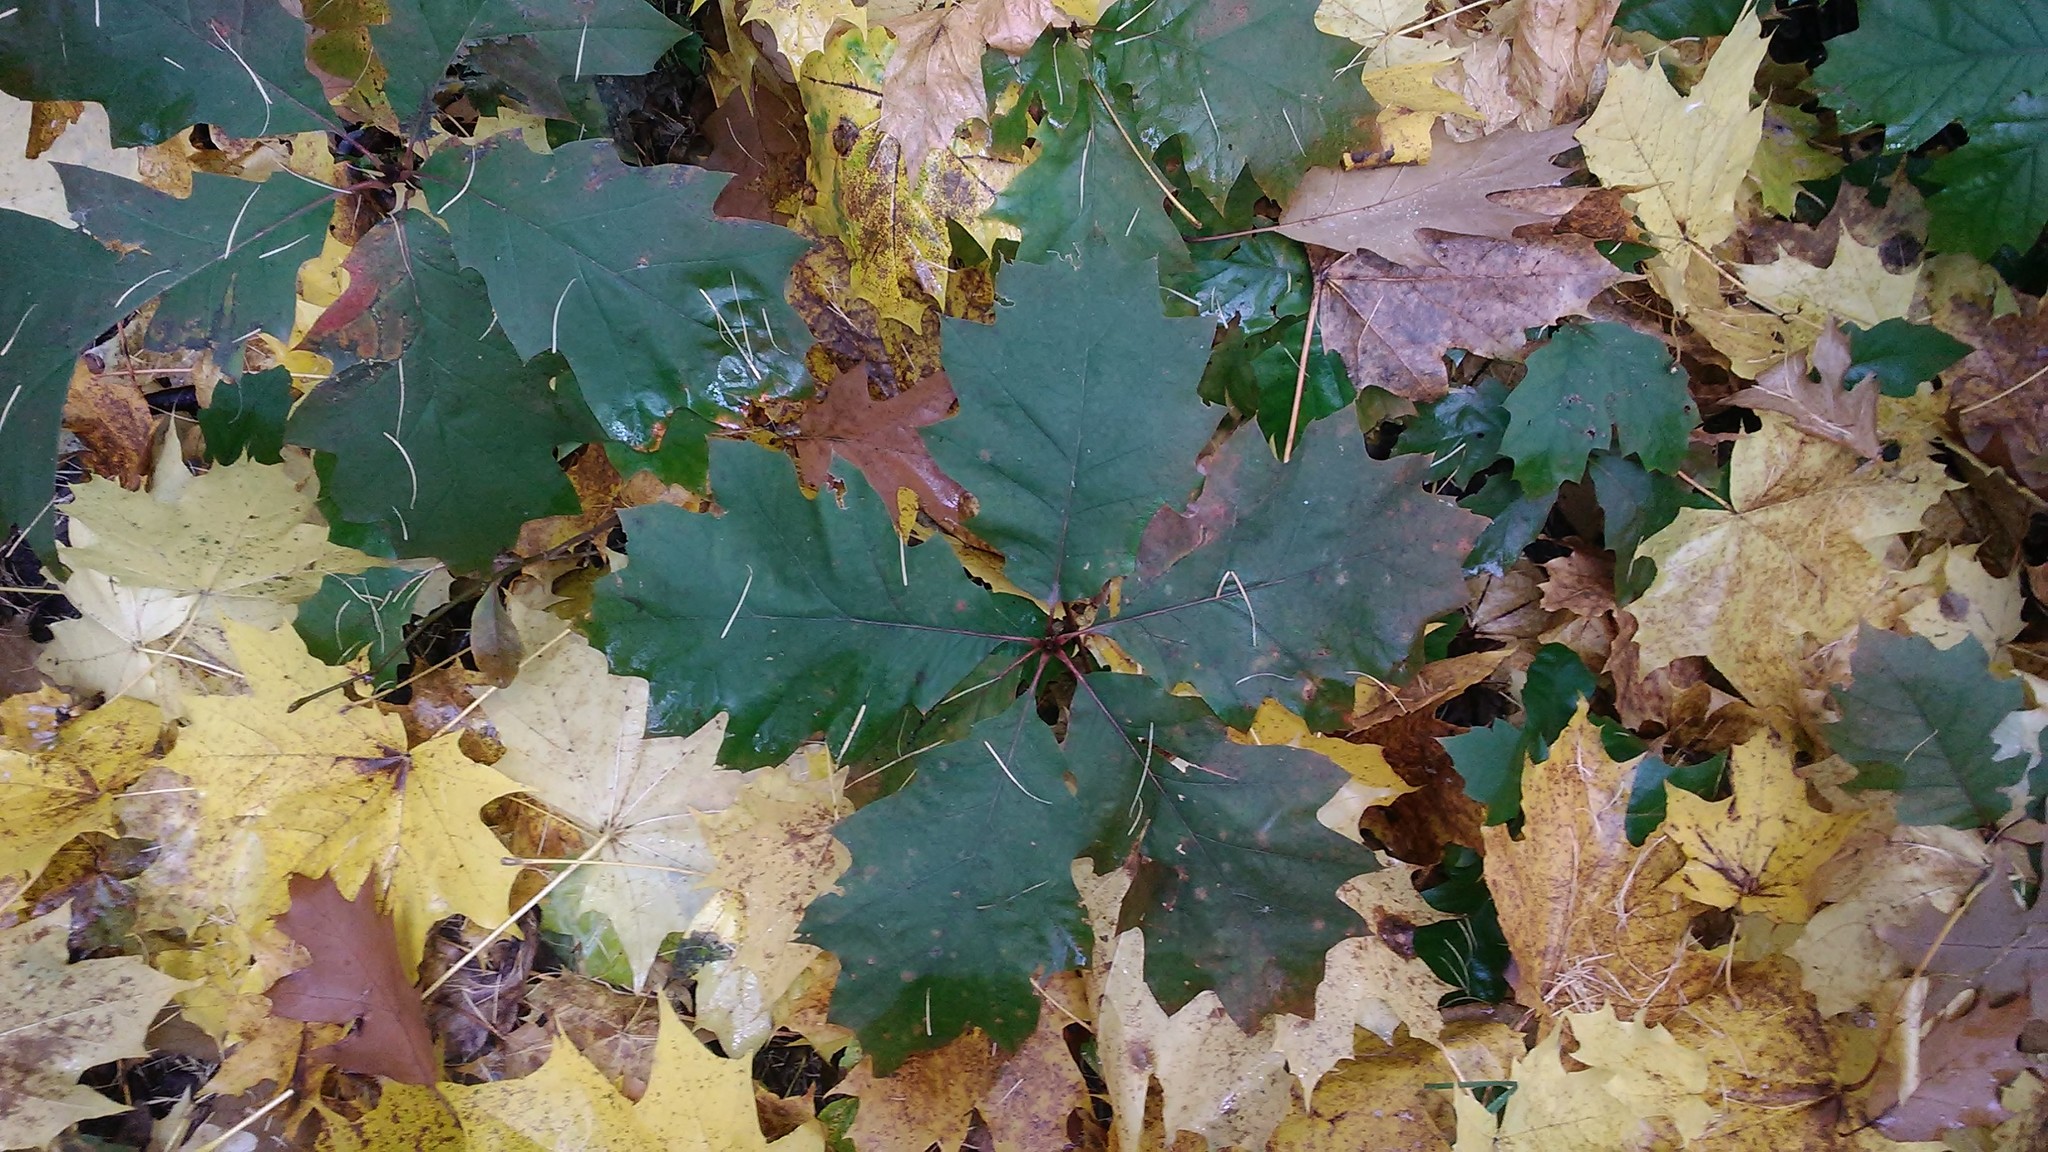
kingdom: Plantae
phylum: Tracheophyta
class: Magnoliopsida
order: Fagales
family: Fagaceae
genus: Quercus
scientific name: Quercus rubra
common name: Red oak
